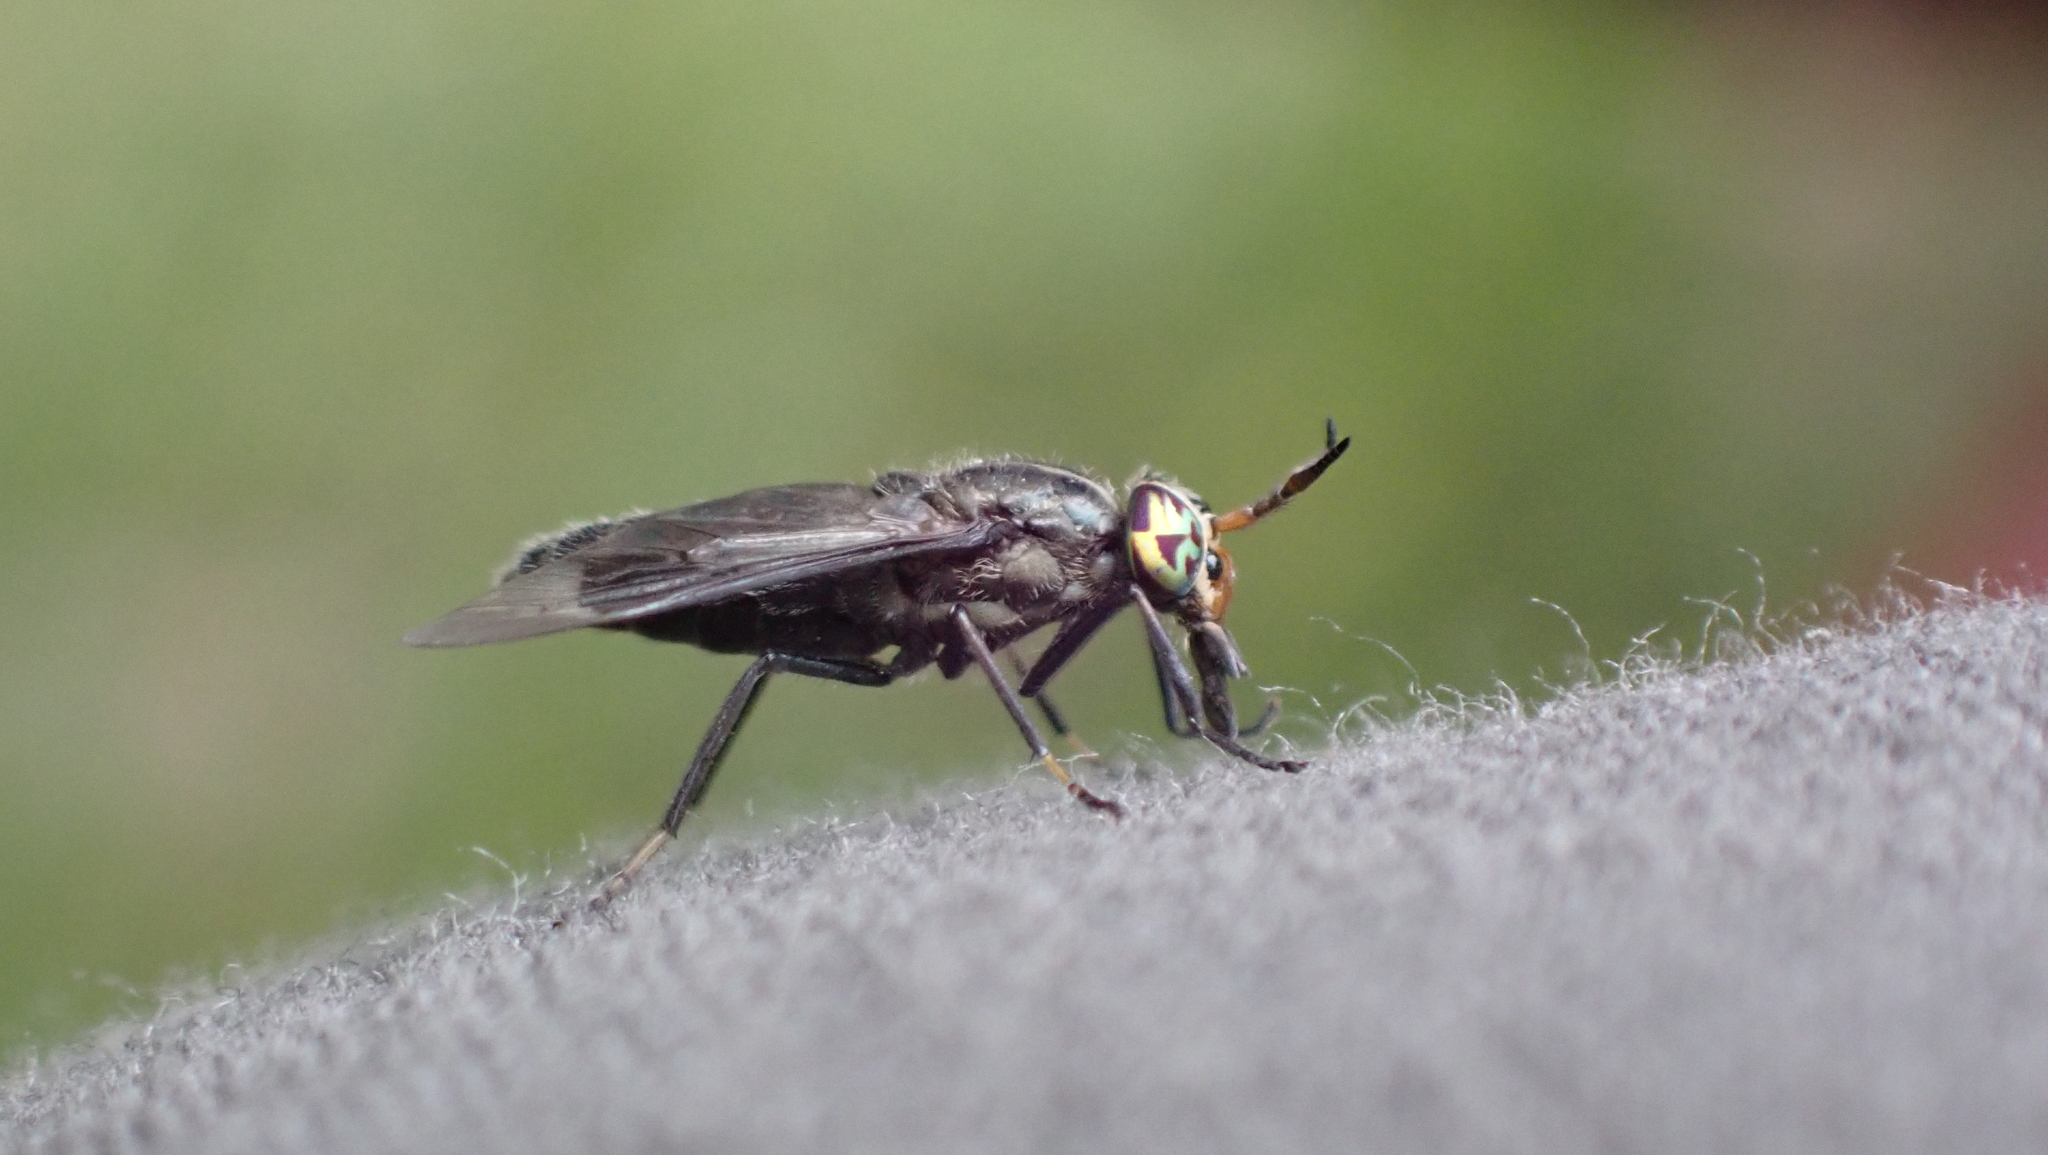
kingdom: Animalia
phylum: Arthropoda
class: Insecta
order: Diptera
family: Tabanidae
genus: Chrysops
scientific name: Chrysops niger
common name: Black deer fly
